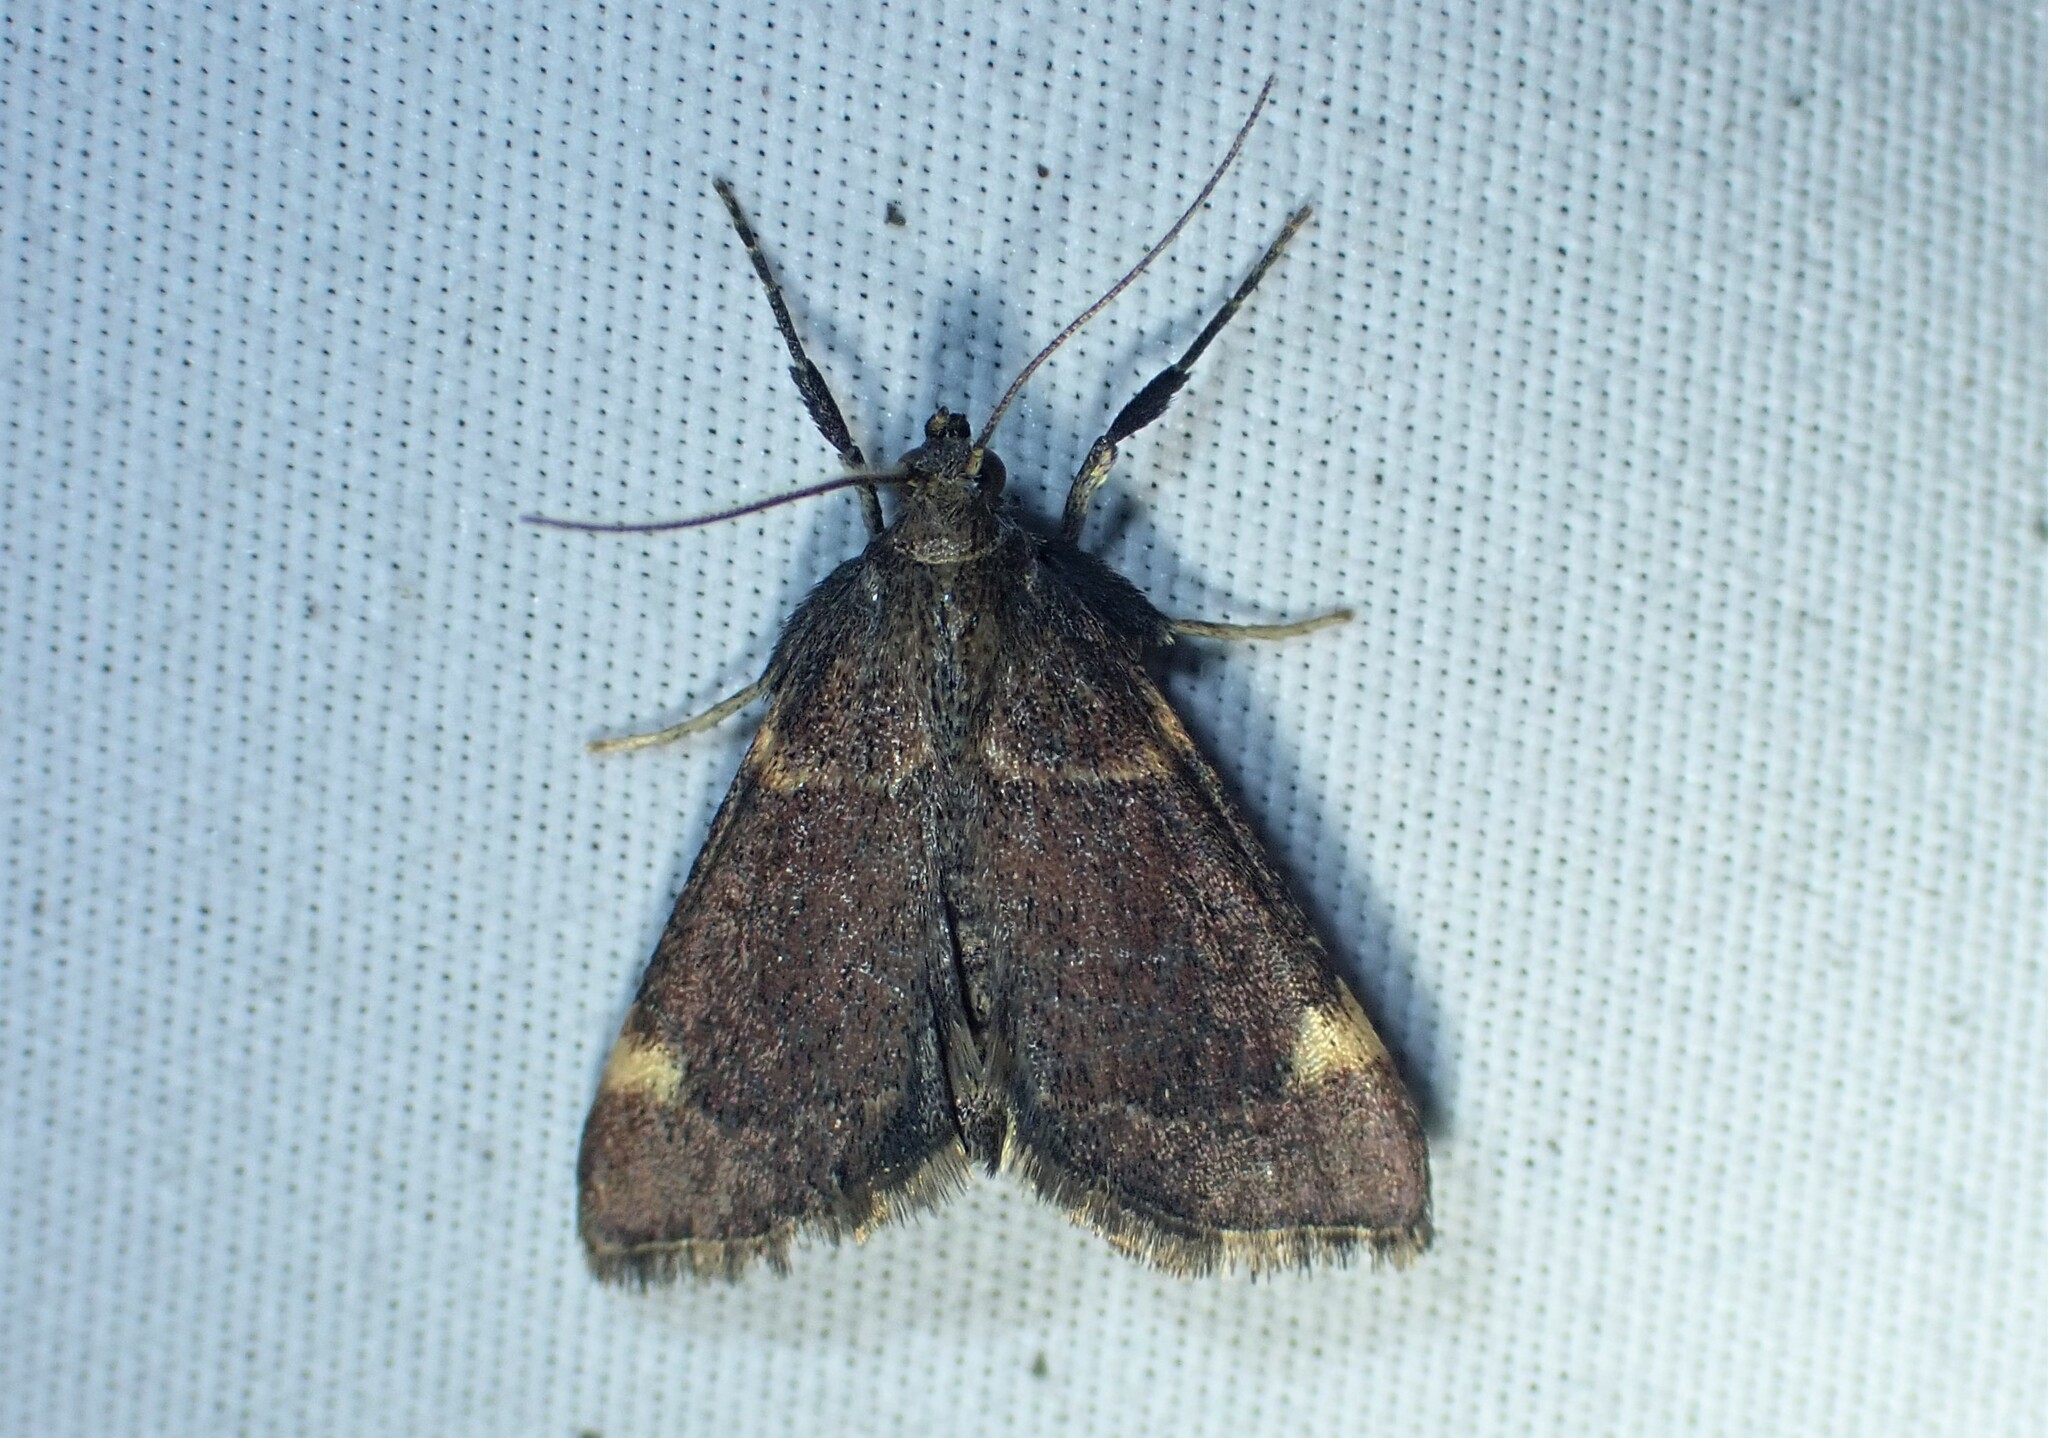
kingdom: Animalia
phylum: Arthropoda
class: Insecta
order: Lepidoptera
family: Pyralidae
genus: Hypsopygia
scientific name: Hypsopygia thymetusalis
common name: Spruce needleworm moth
